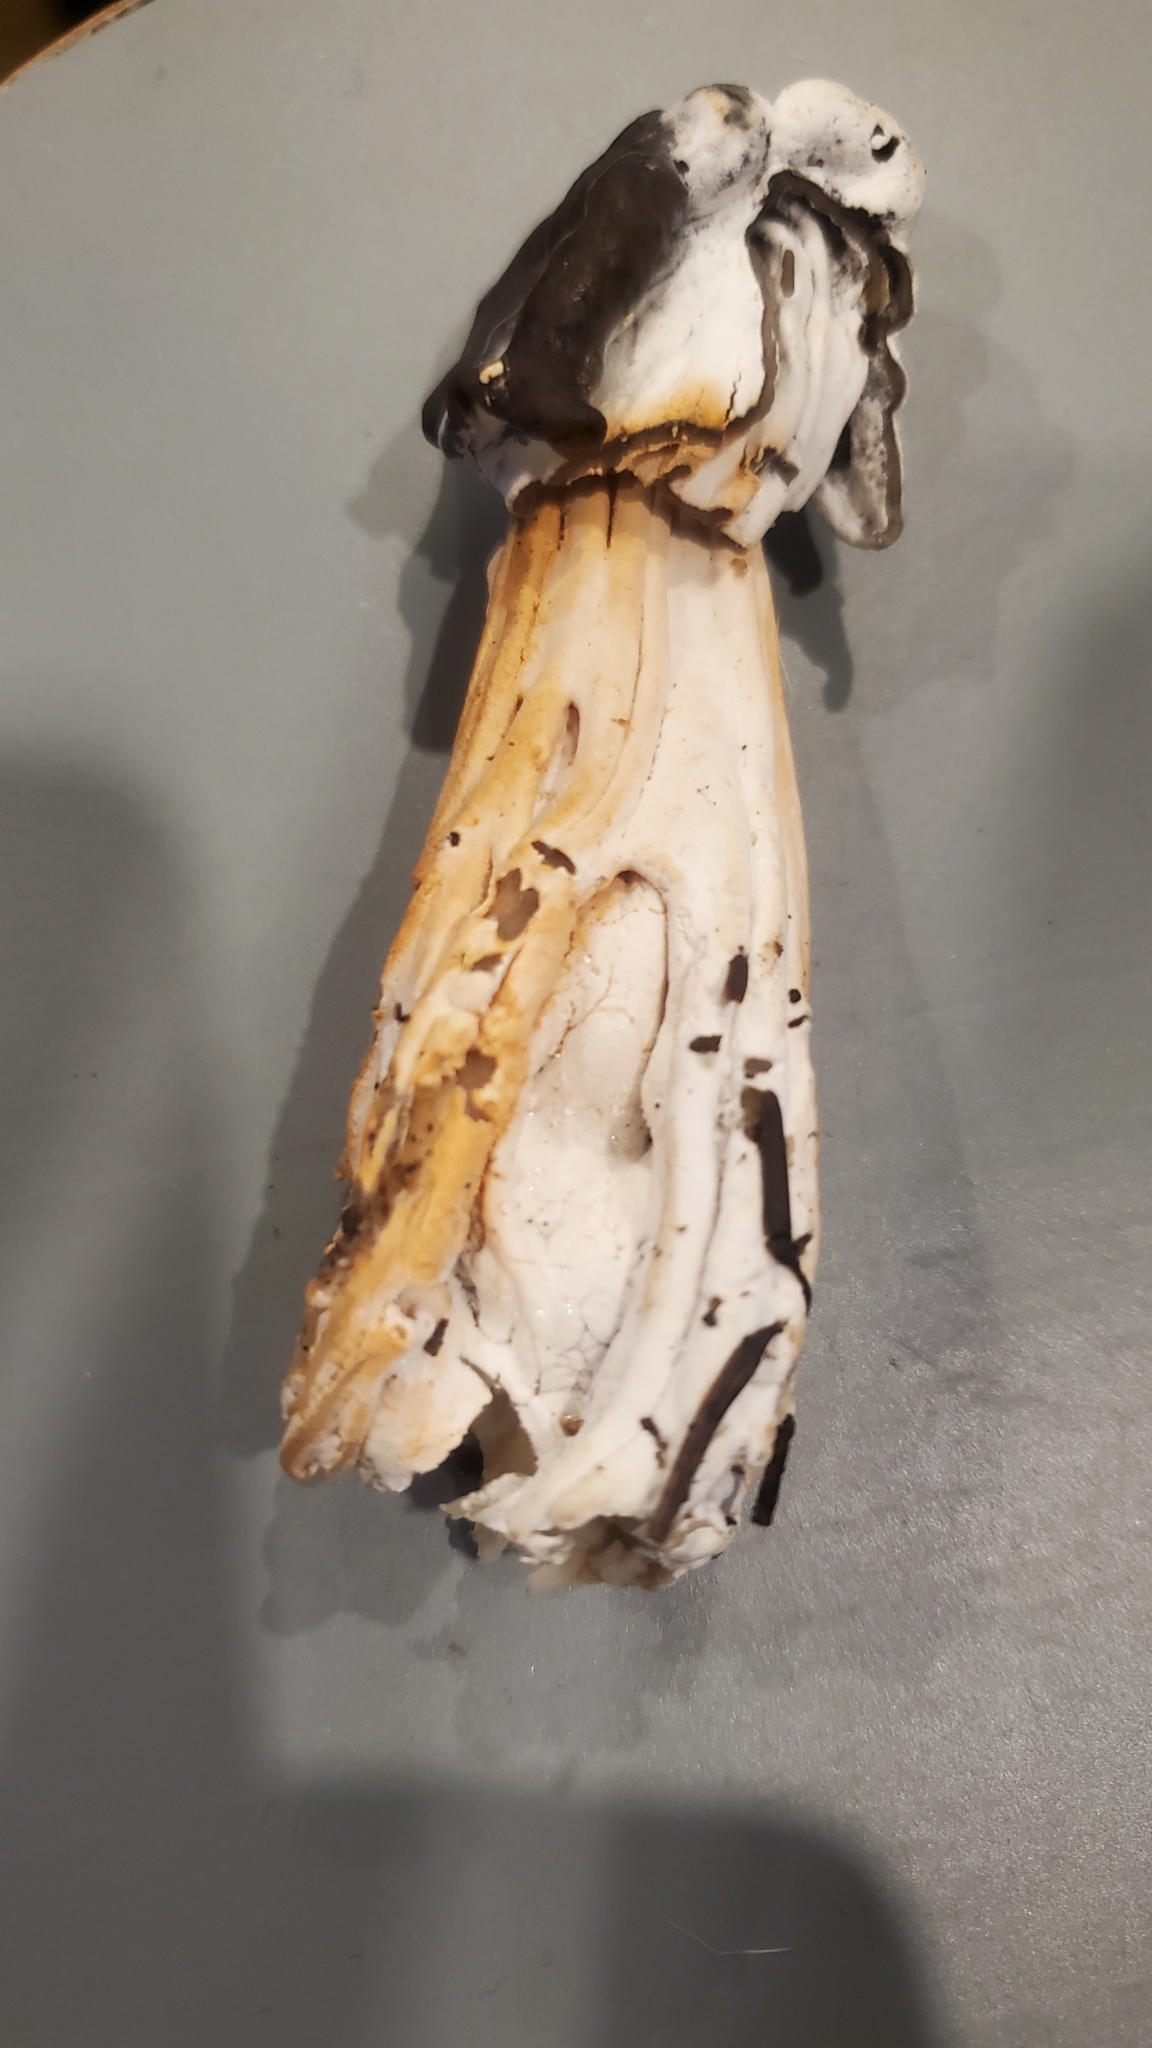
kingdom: Fungi
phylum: Ascomycota
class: Sordariomycetes
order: Hypocreales
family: Hypocreaceae
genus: Hypomyces
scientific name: Hypomyces cervinus
